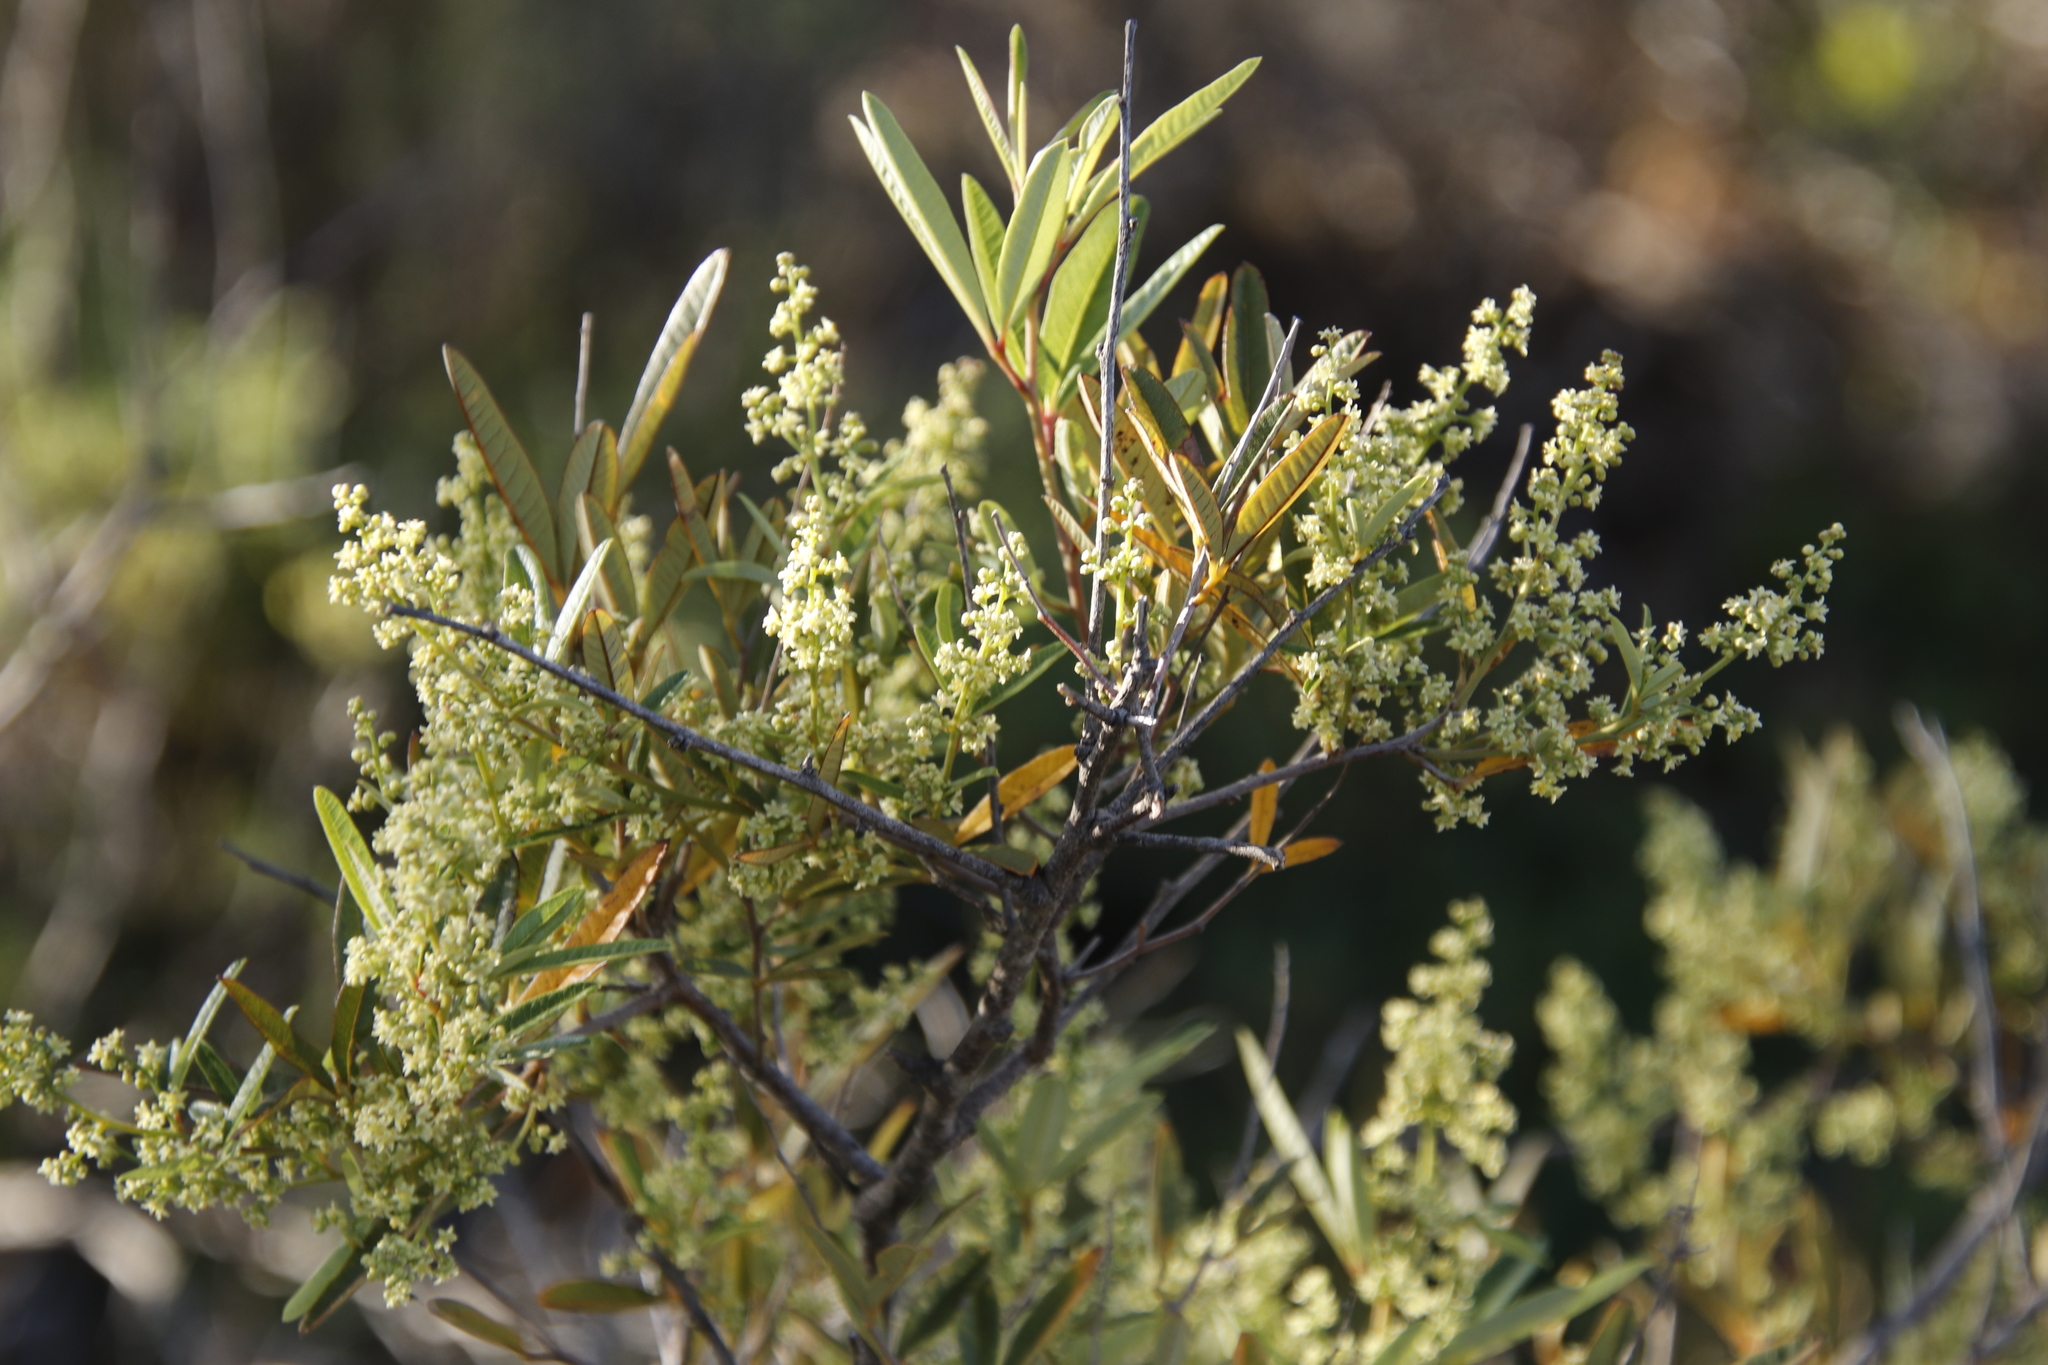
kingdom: Plantae
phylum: Tracheophyta
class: Magnoliopsida
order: Sapindales
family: Anacardiaceae
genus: Searsia
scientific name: Searsia angustifolia
